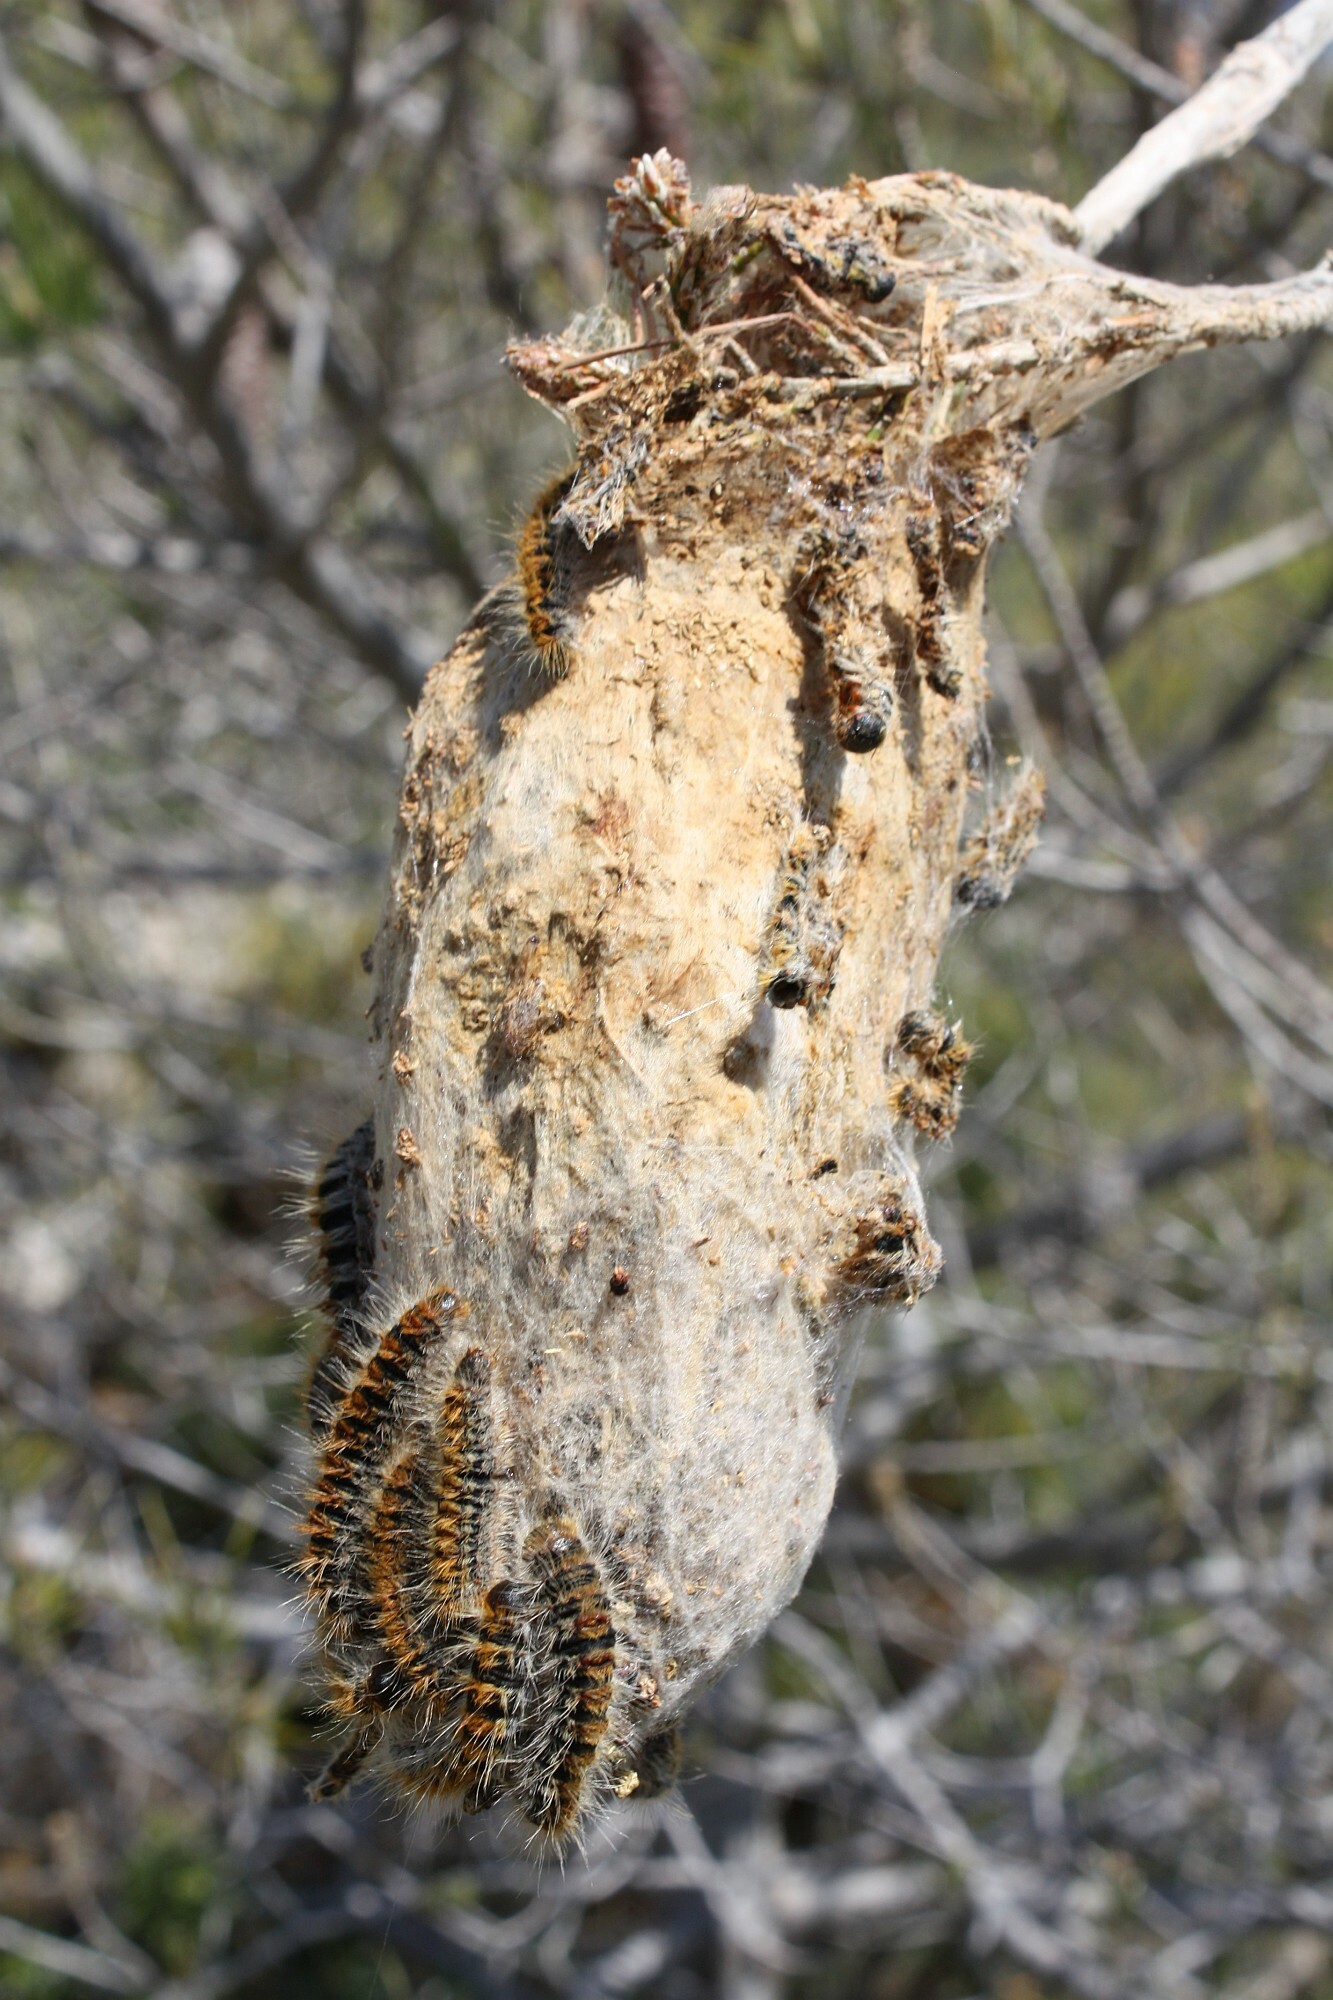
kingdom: Animalia
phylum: Arthropoda
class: Insecta
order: Lepidoptera
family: Notodontidae
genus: Thaumetopoea
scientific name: Thaumetopoea pityocampa
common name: Pine processionary
